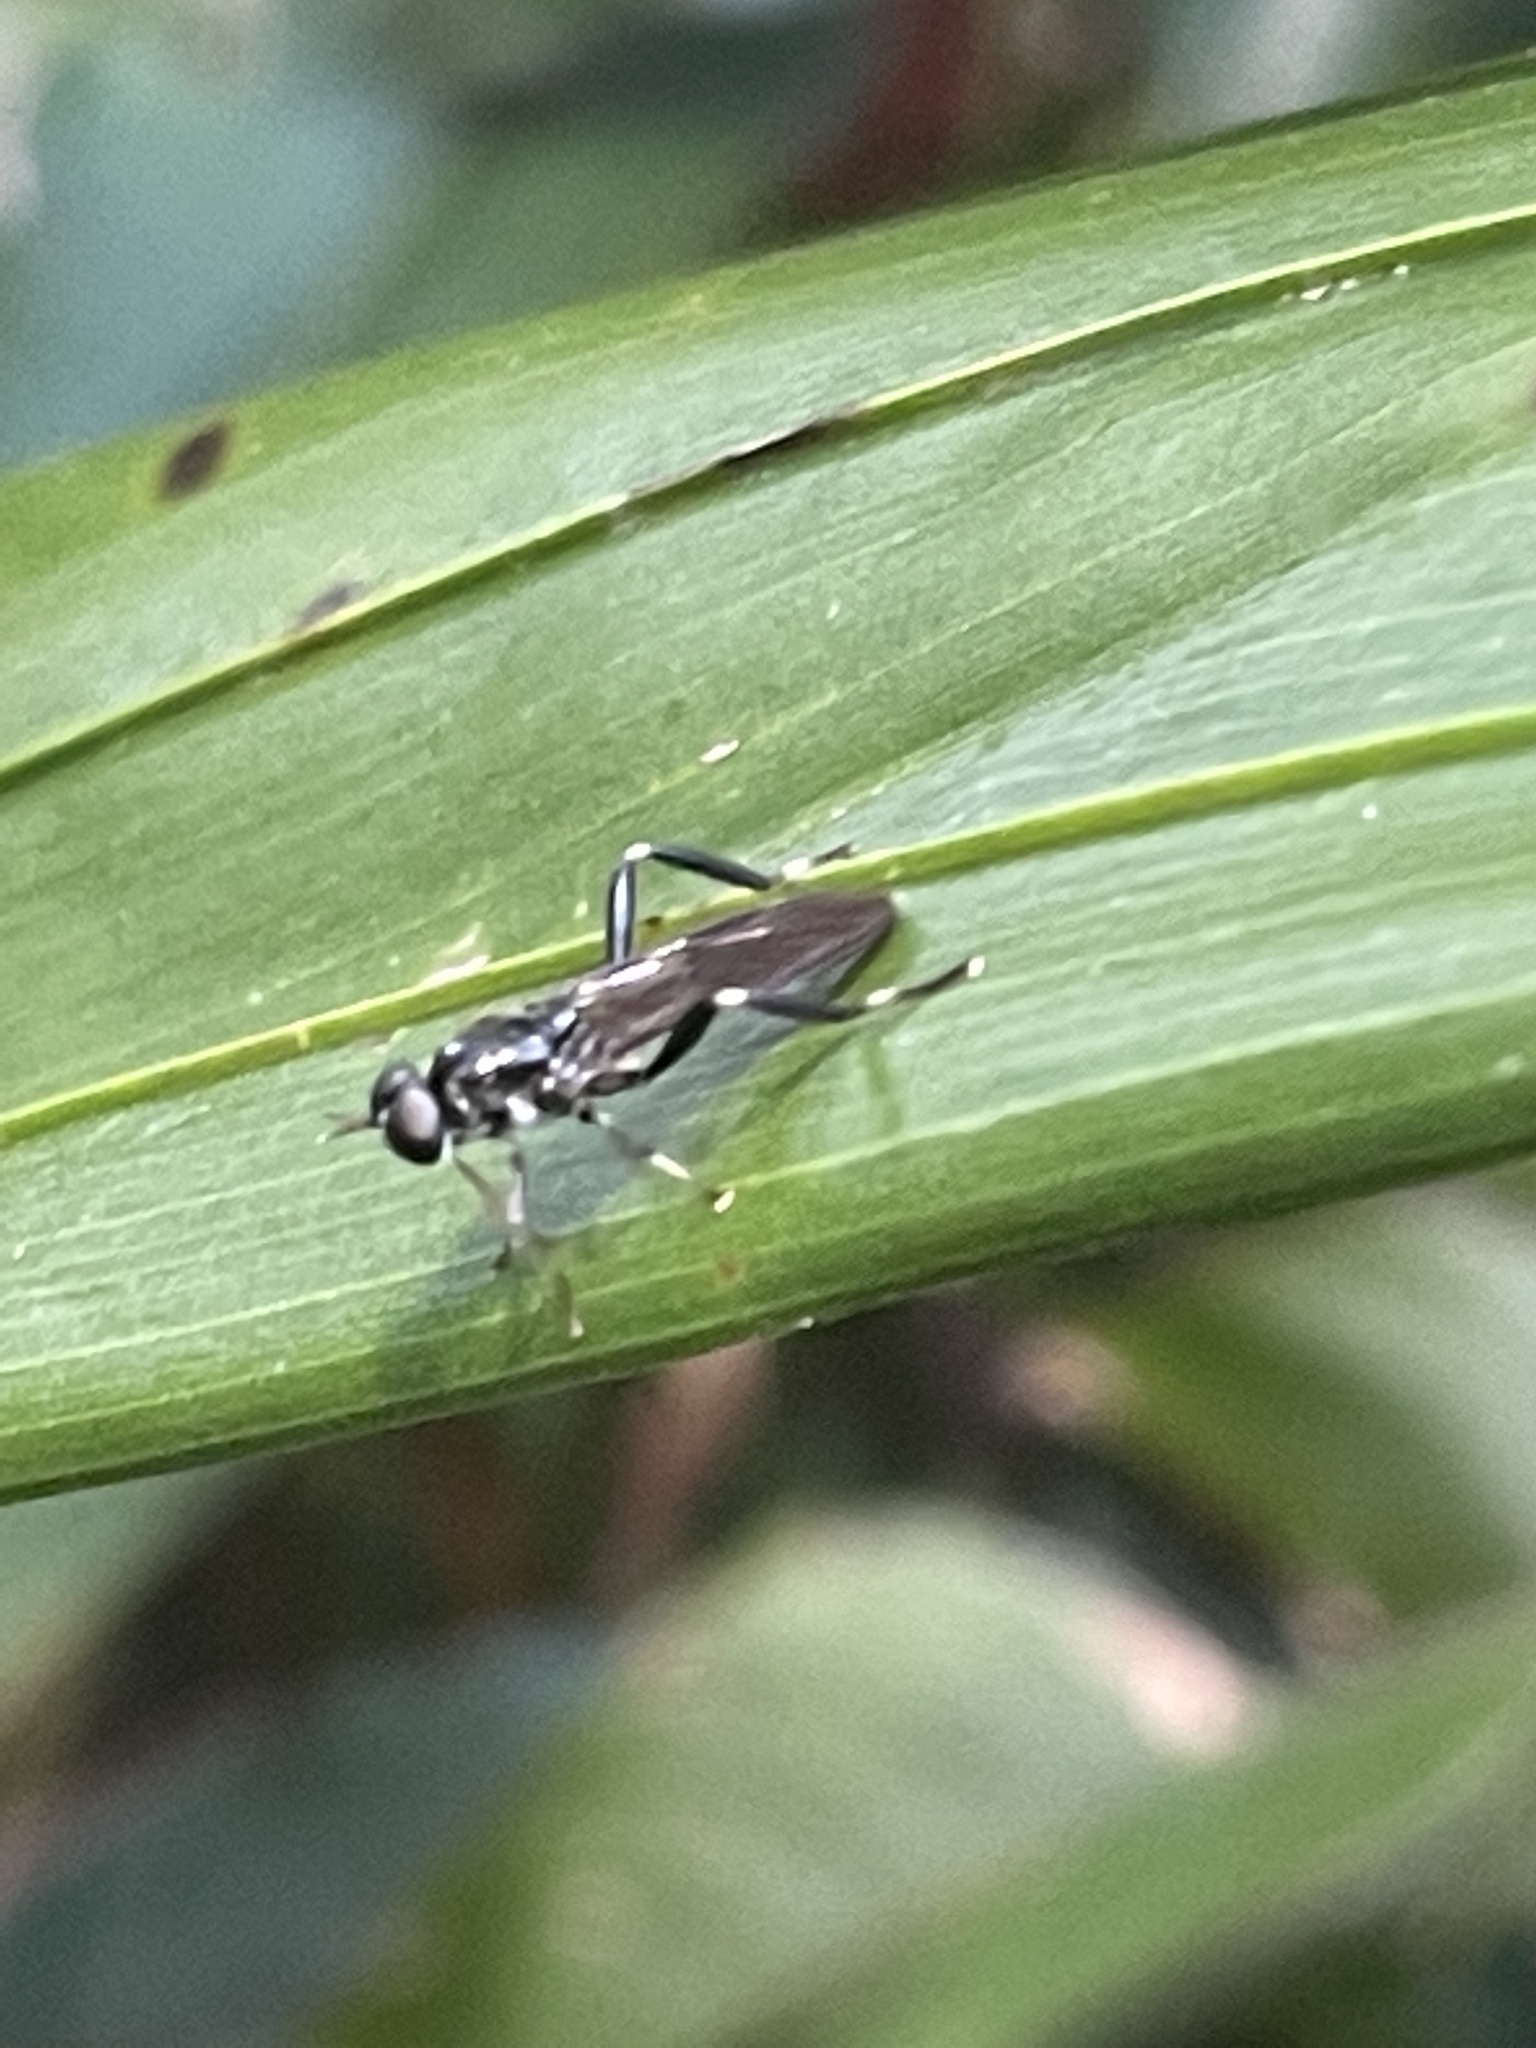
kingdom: Animalia
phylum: Arthropoda
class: Insecta
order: Diptera
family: Stratiomyidae
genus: Exaireta
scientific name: Exaireta spinigera
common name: Blue soldier fly
